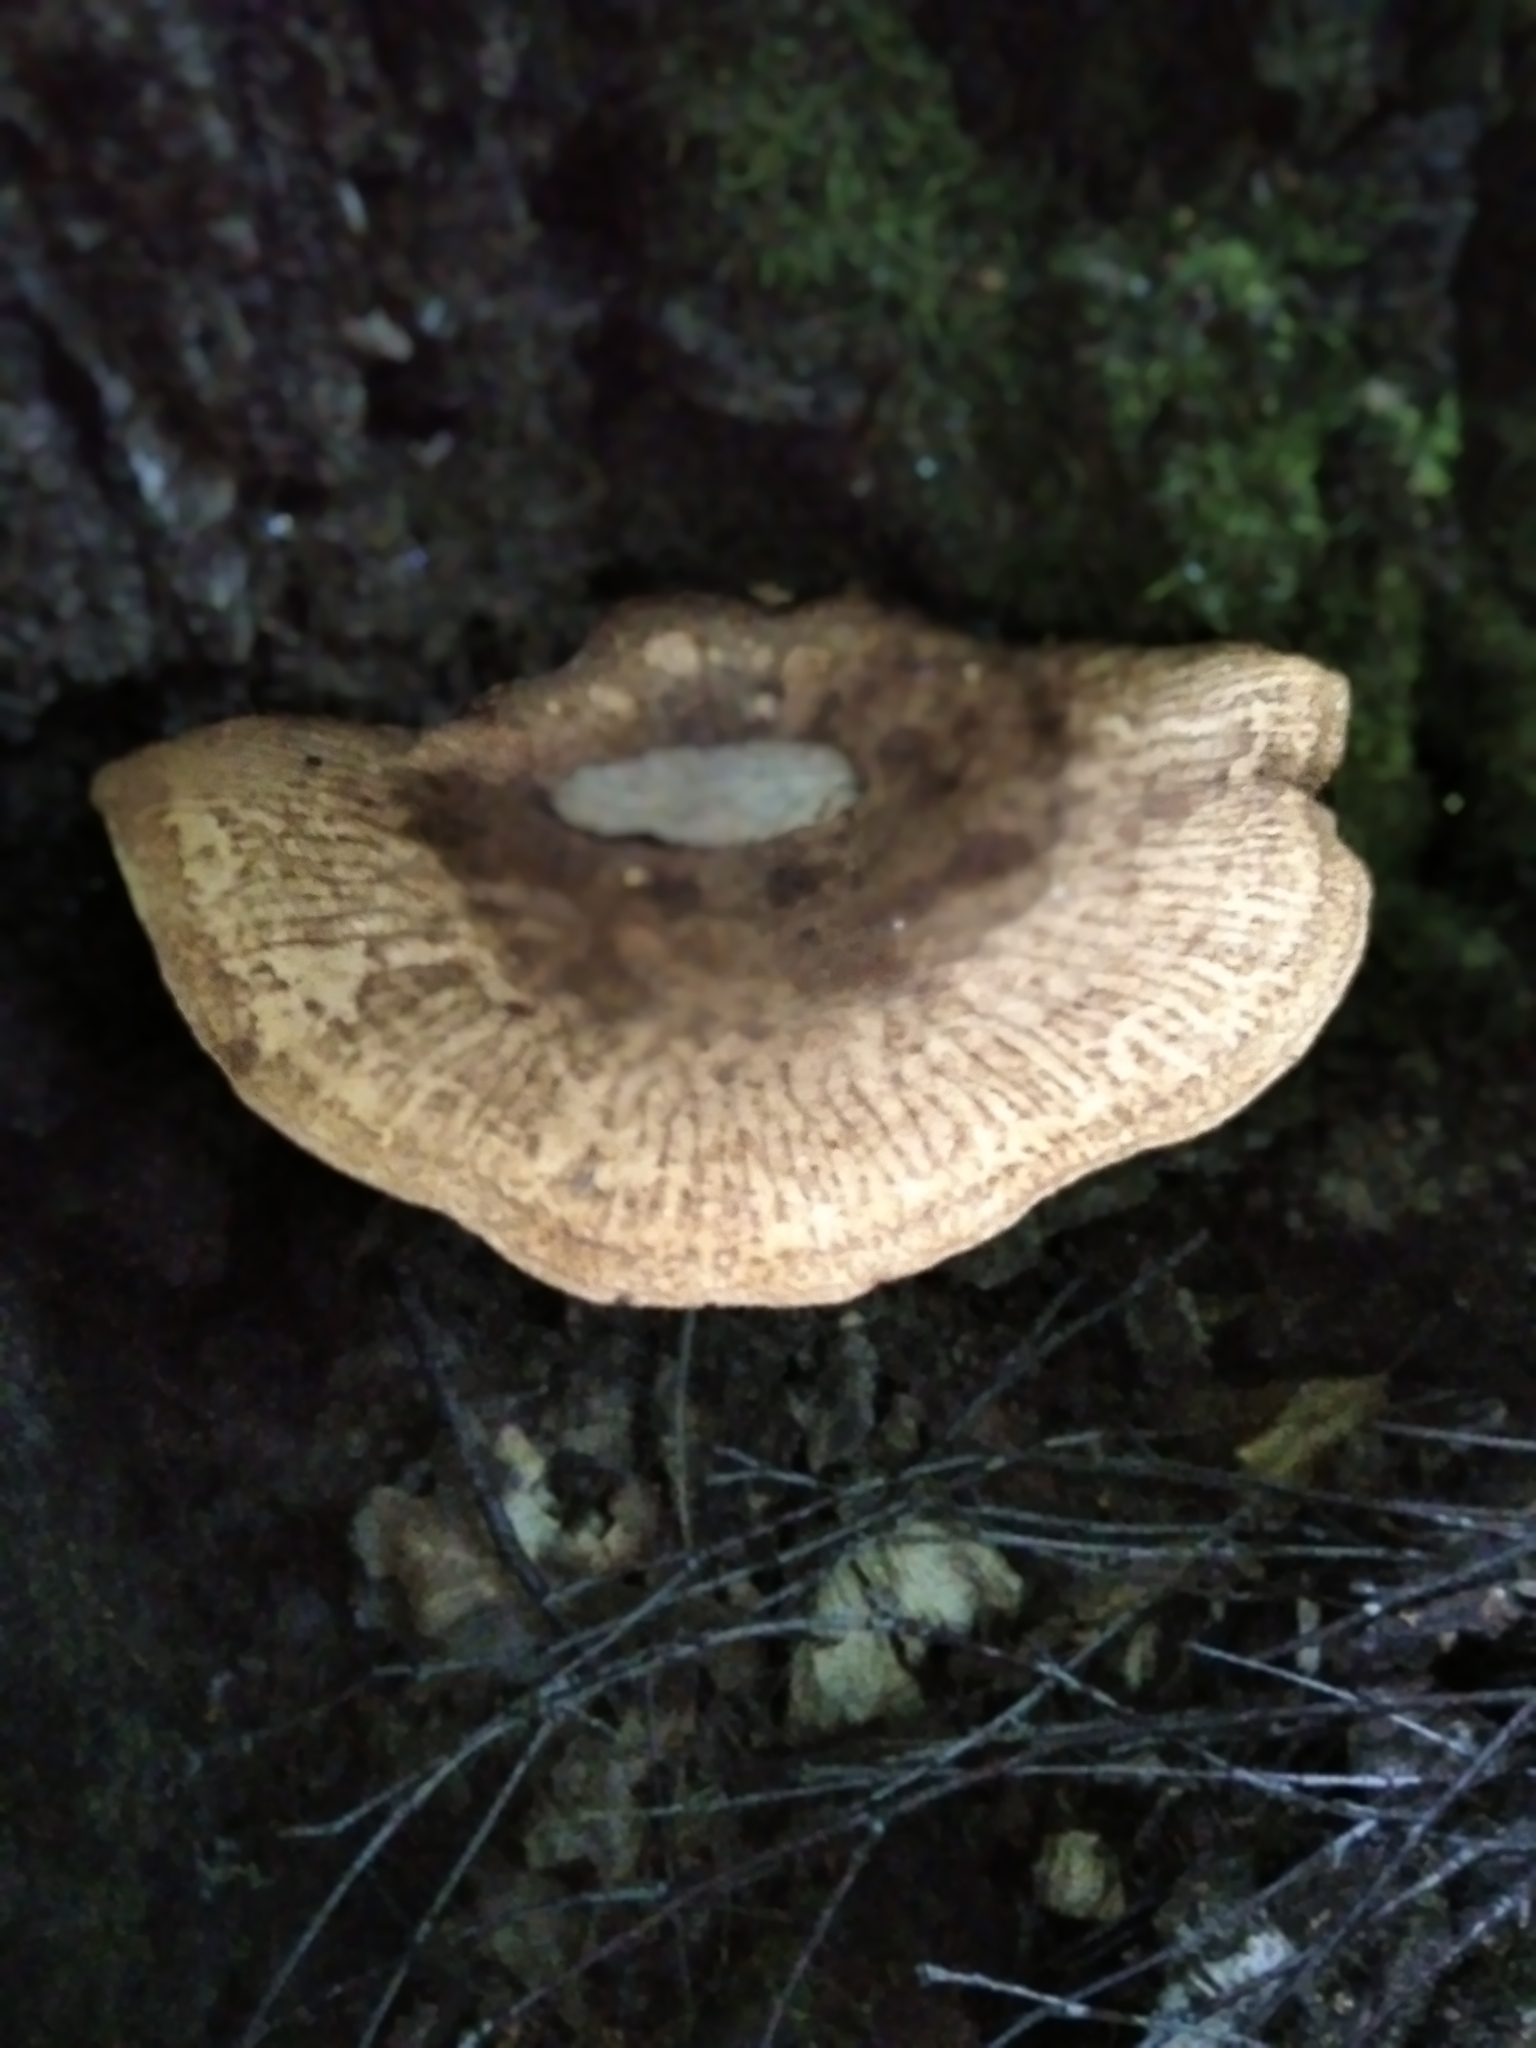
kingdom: Fungi
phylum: Basidiomycota
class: Agaricomycetes
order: Boletales
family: Paxillaceae
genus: Paxillus
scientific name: Paxillus involutus
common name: Brown roll rim
